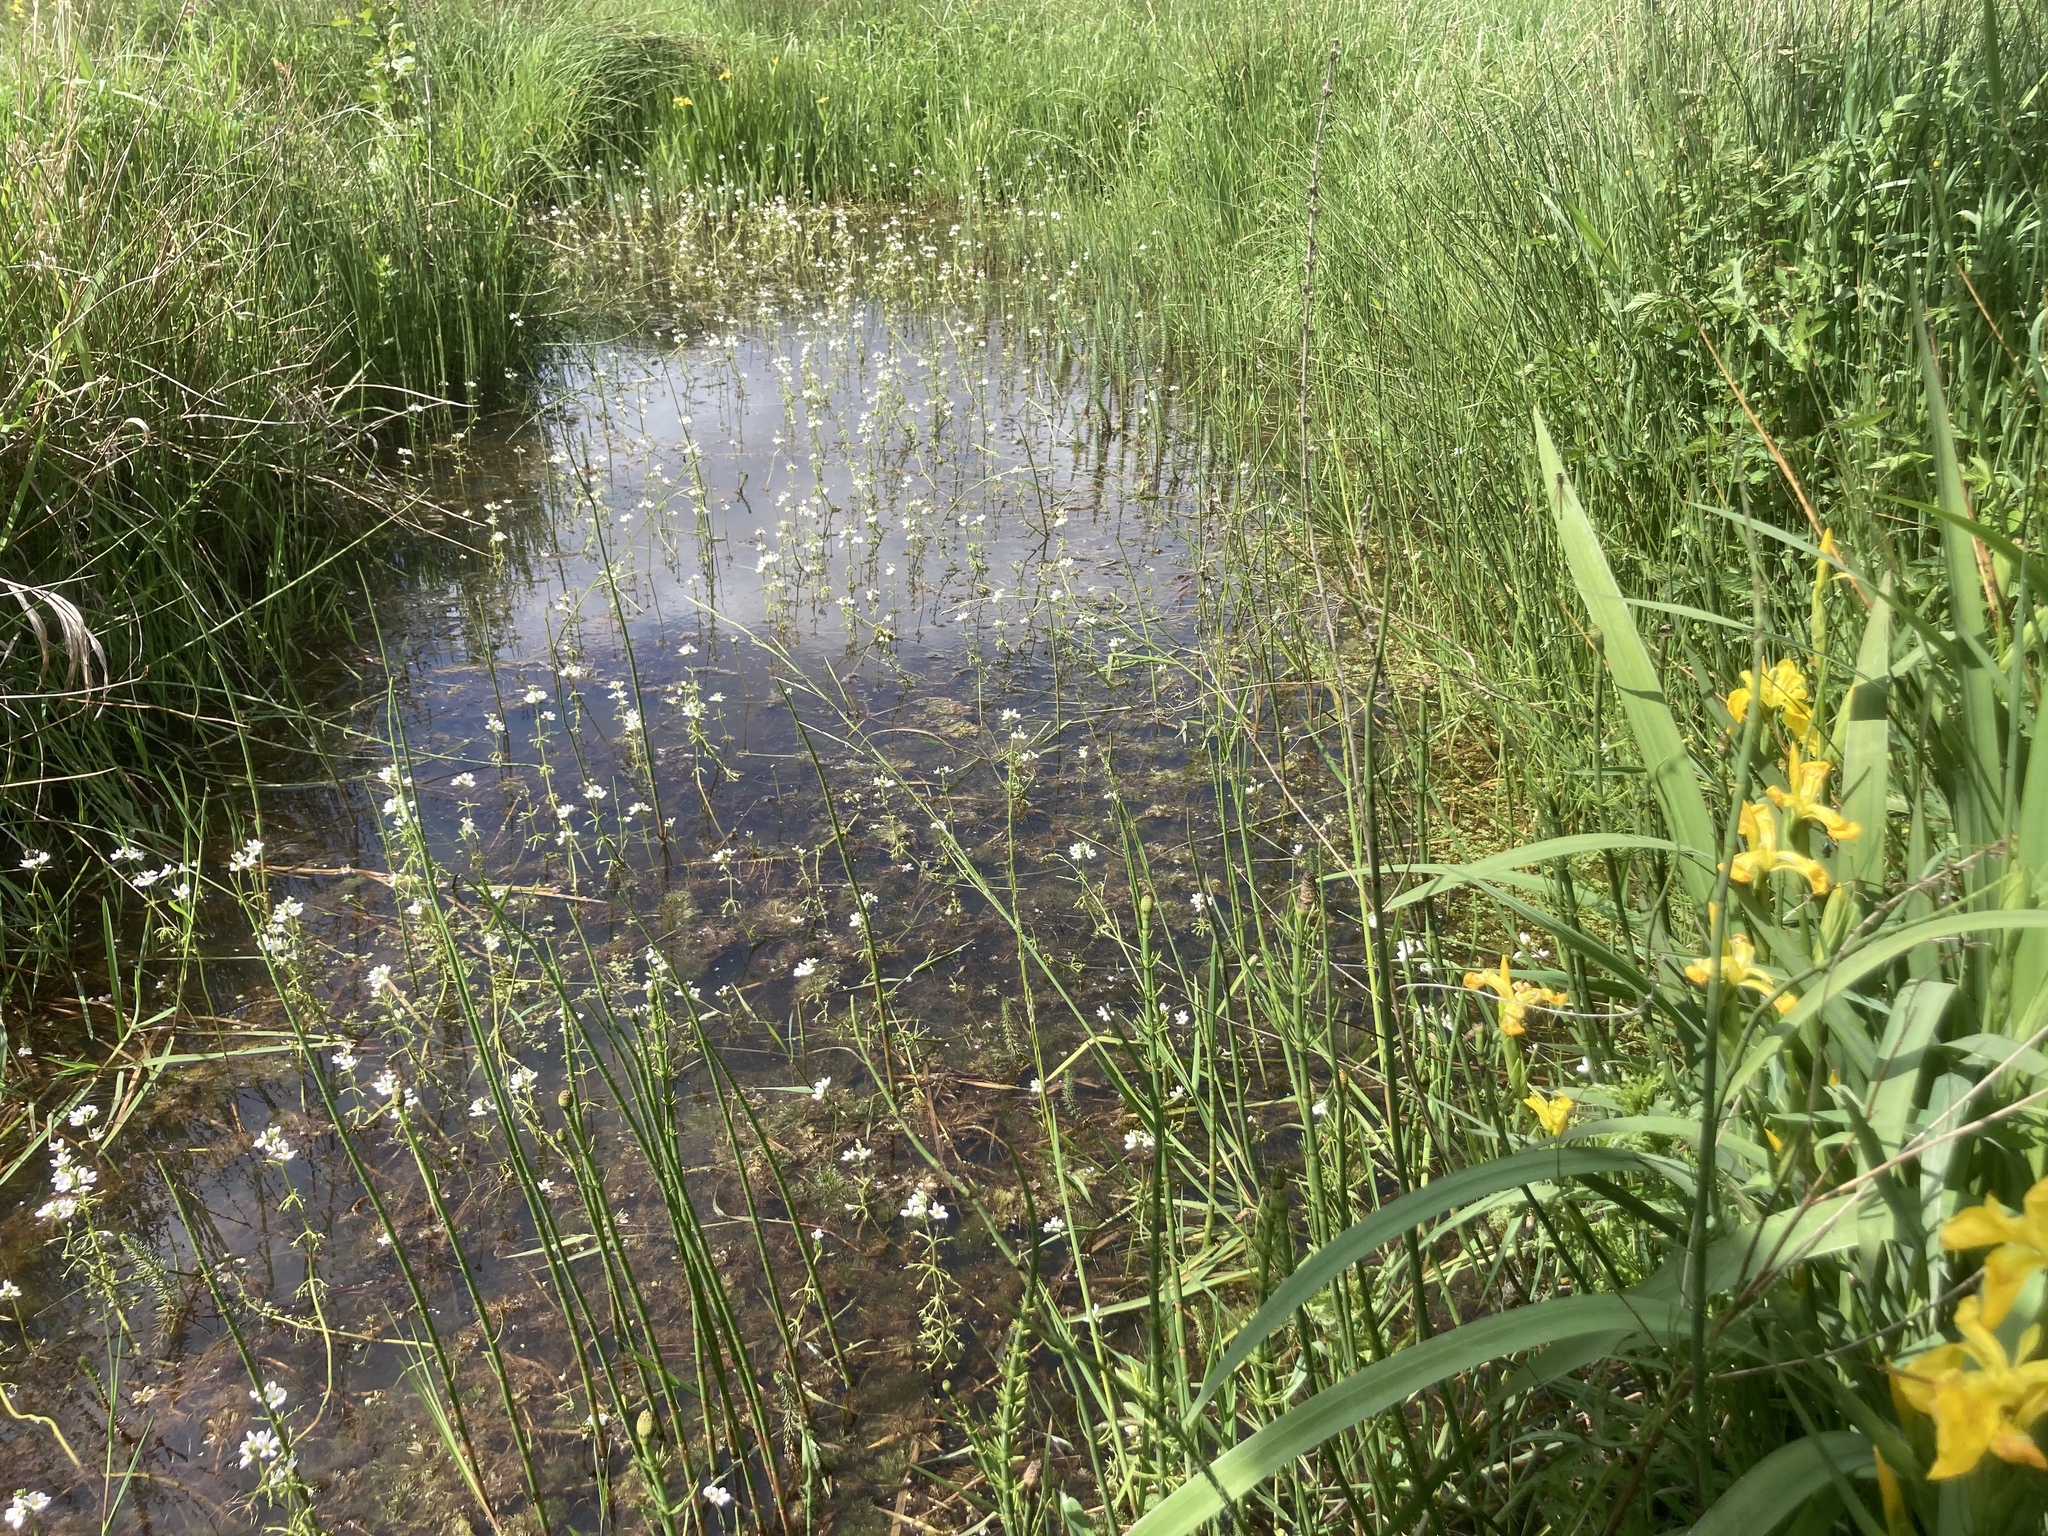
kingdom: Plantae
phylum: Tracheophyta
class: Magnoliopsida
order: Ericales
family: Primulaceae
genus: Hottonia
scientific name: Hottonia palustris
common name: Water-violet
